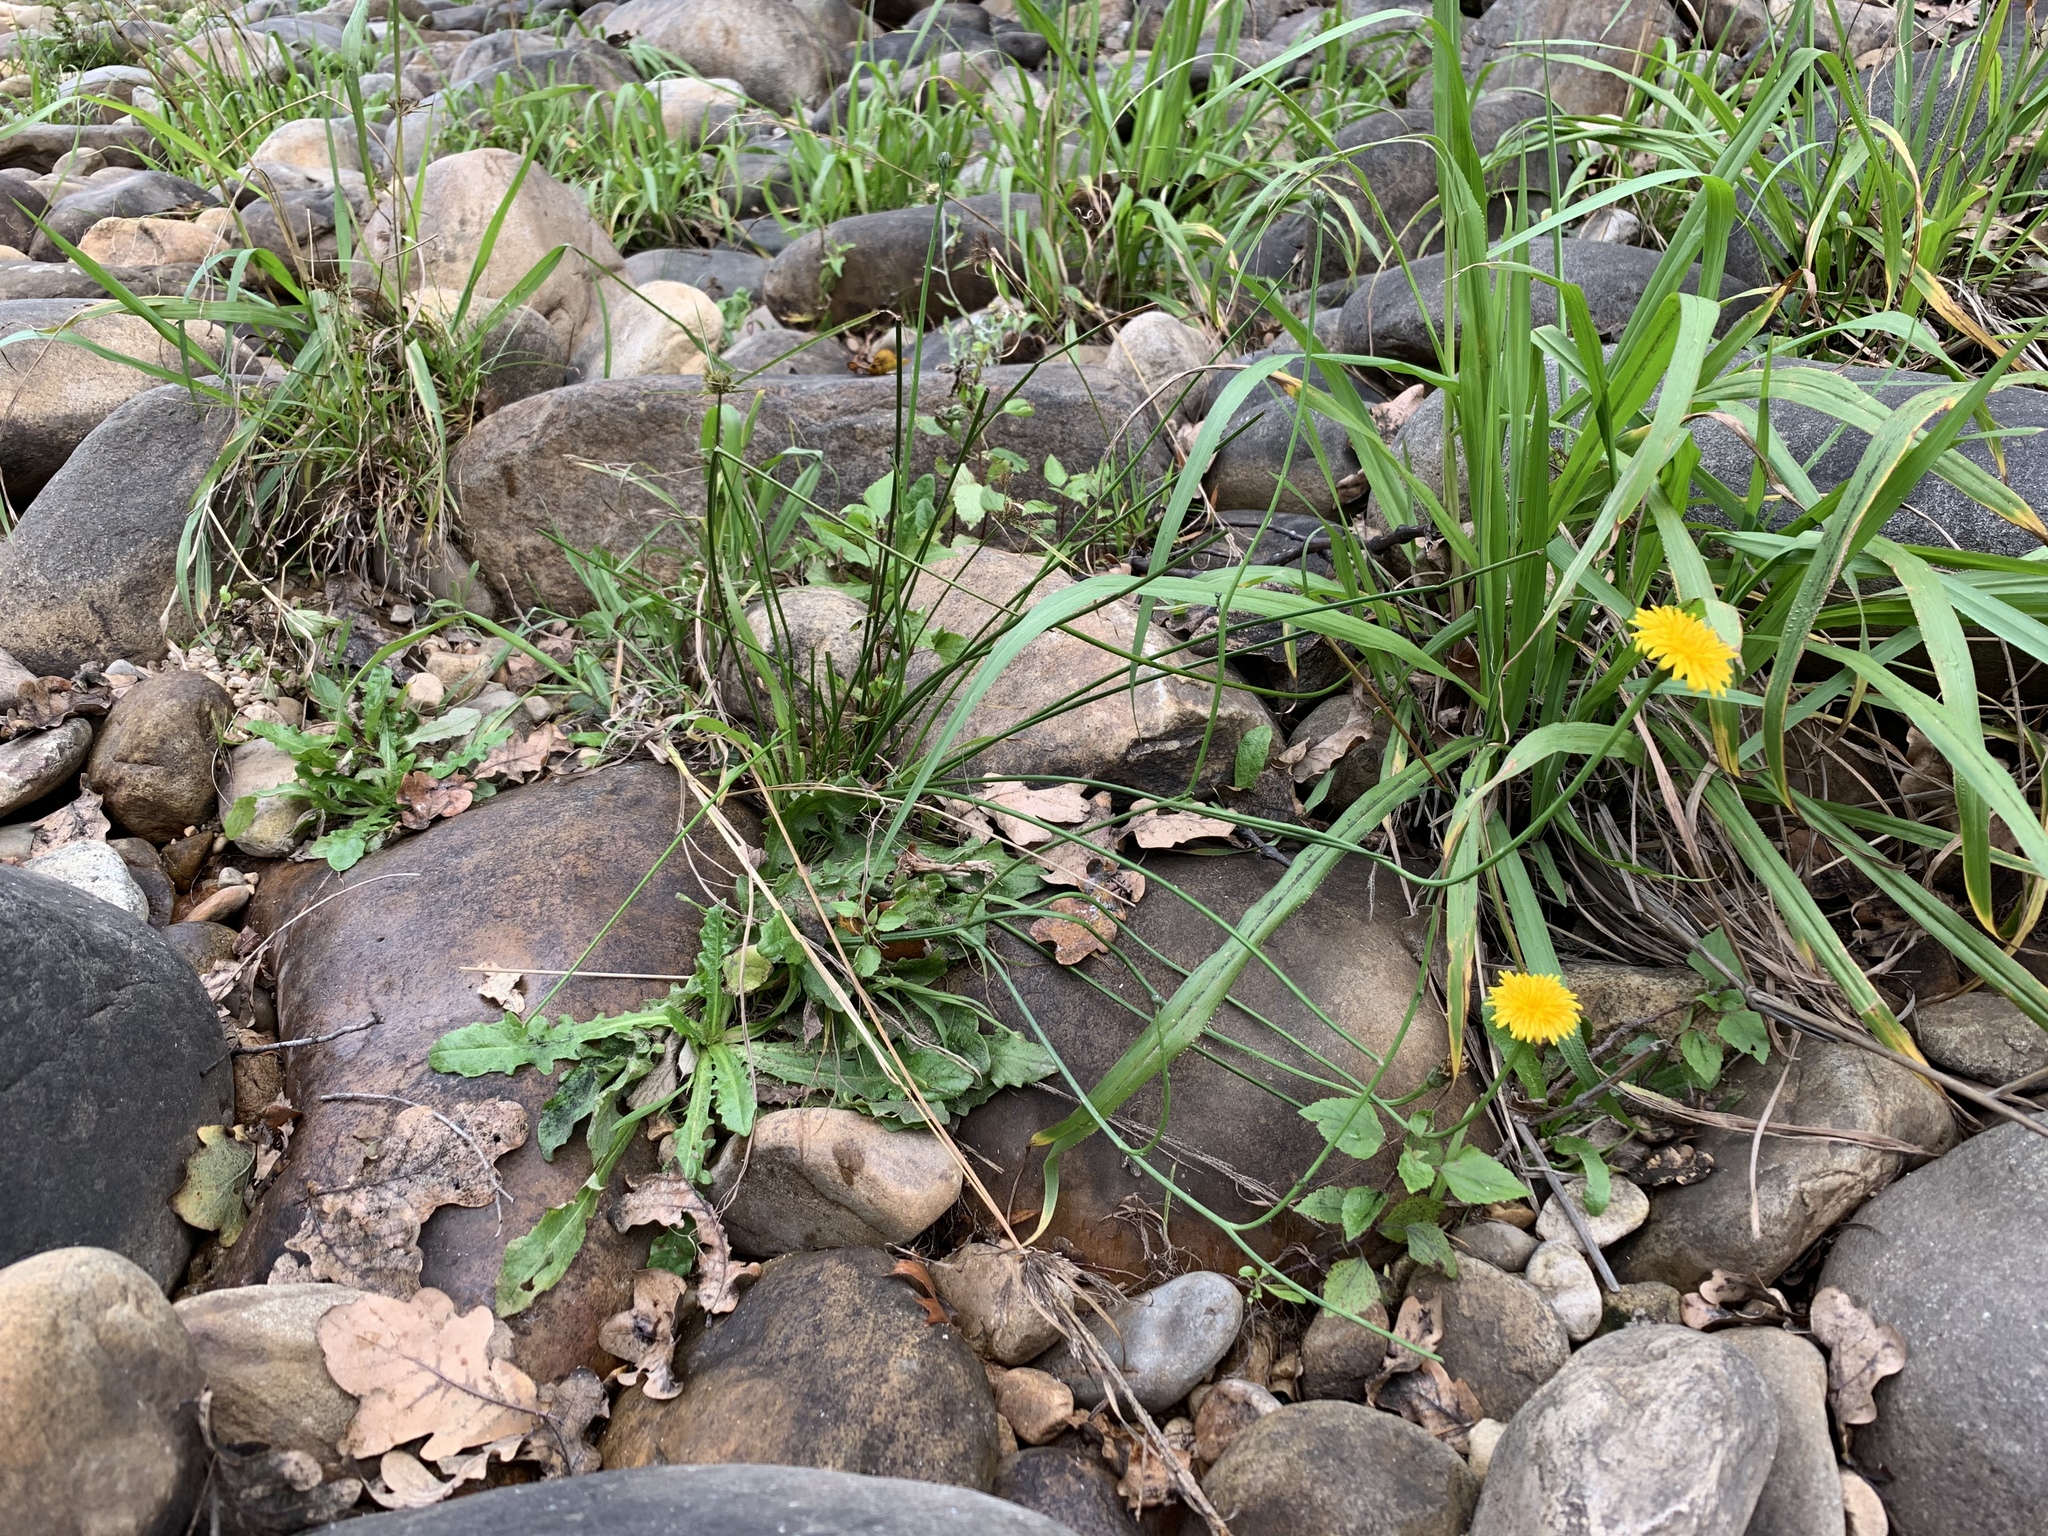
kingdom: Plantae
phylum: Tracheophyta
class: Magnoliopsida
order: Asterales
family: Asteraceae
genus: Hypochaeris
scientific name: Hypochaeris radicata
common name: Flatweed
